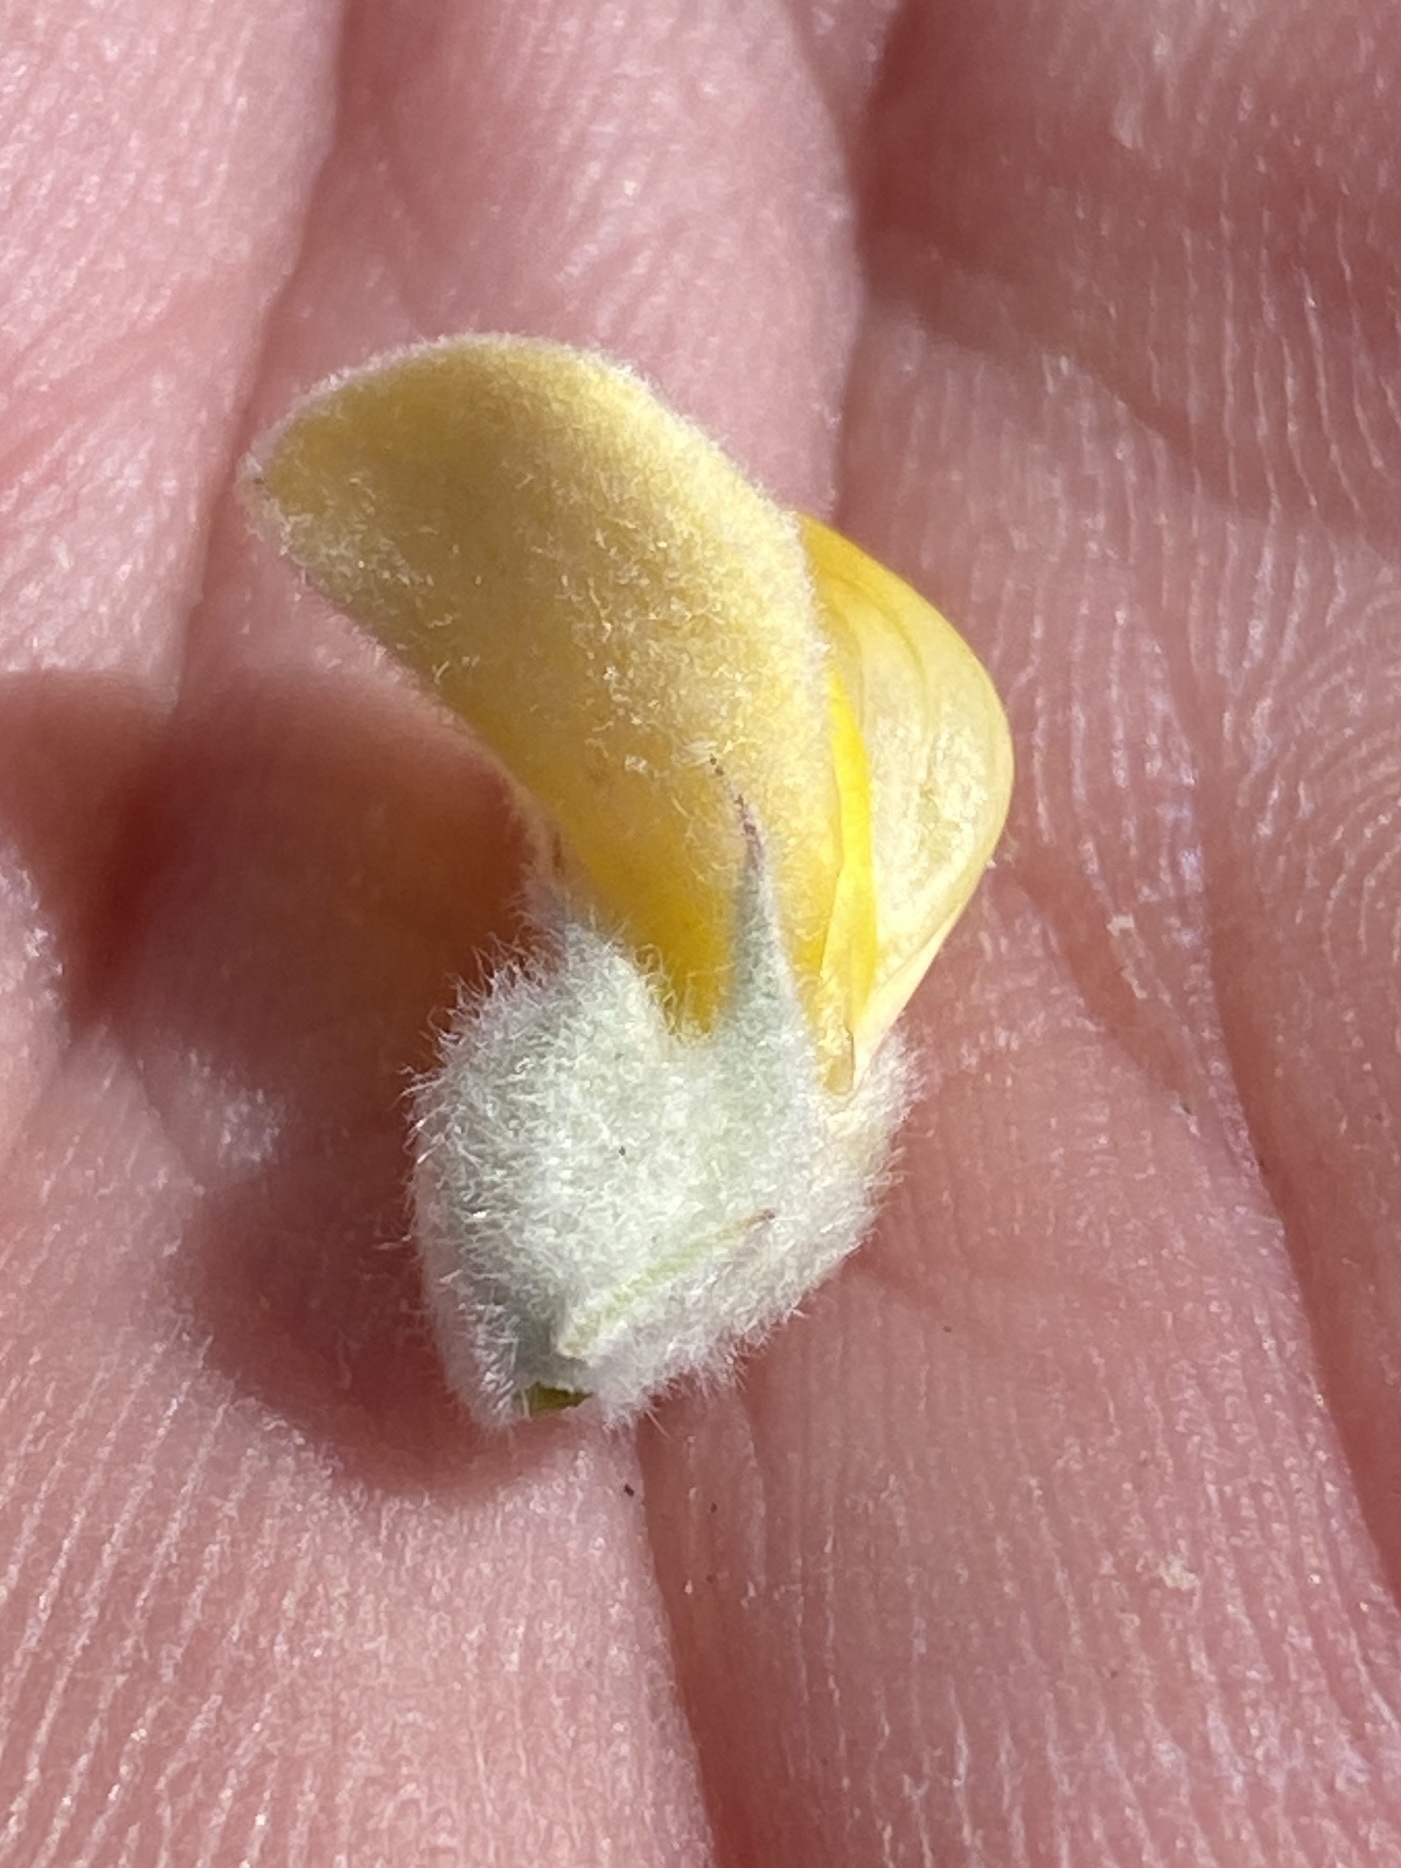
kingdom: Plantae
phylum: Tracheophyta
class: Magnoliopsida
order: Fabales
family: Fabaceae
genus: Aspalathus
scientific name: Aspalathus hystrix
